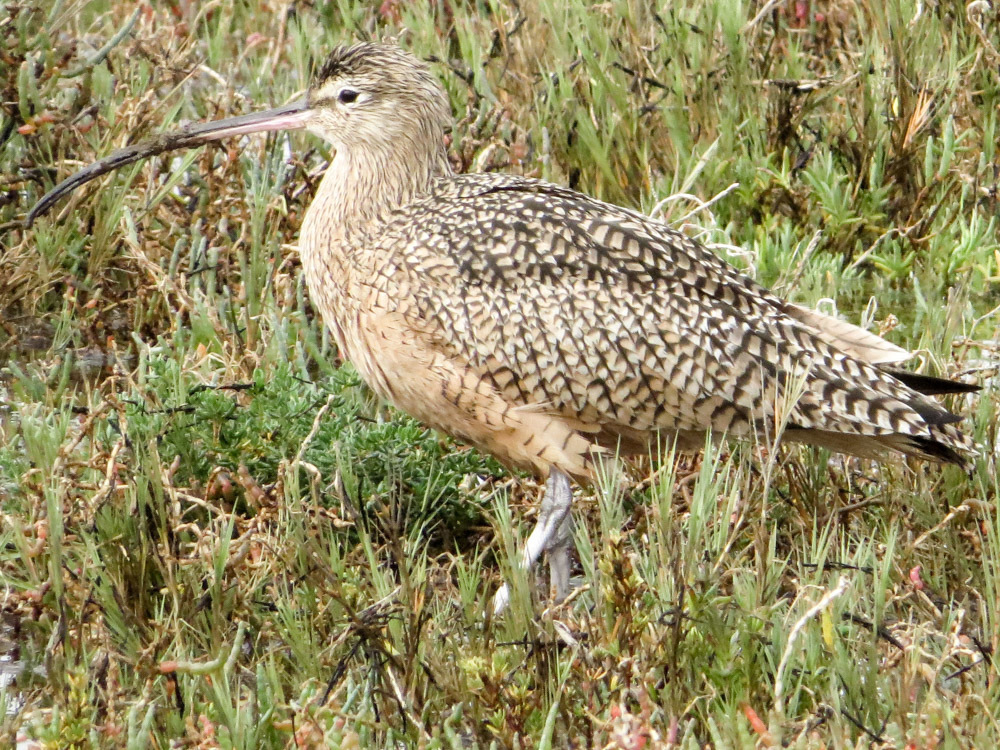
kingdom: Animalia
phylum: Chordata
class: Aves
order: Charadriiformes
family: Scolopacidae
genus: Numenius
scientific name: Numenius americanus
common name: Long-billed curlew
